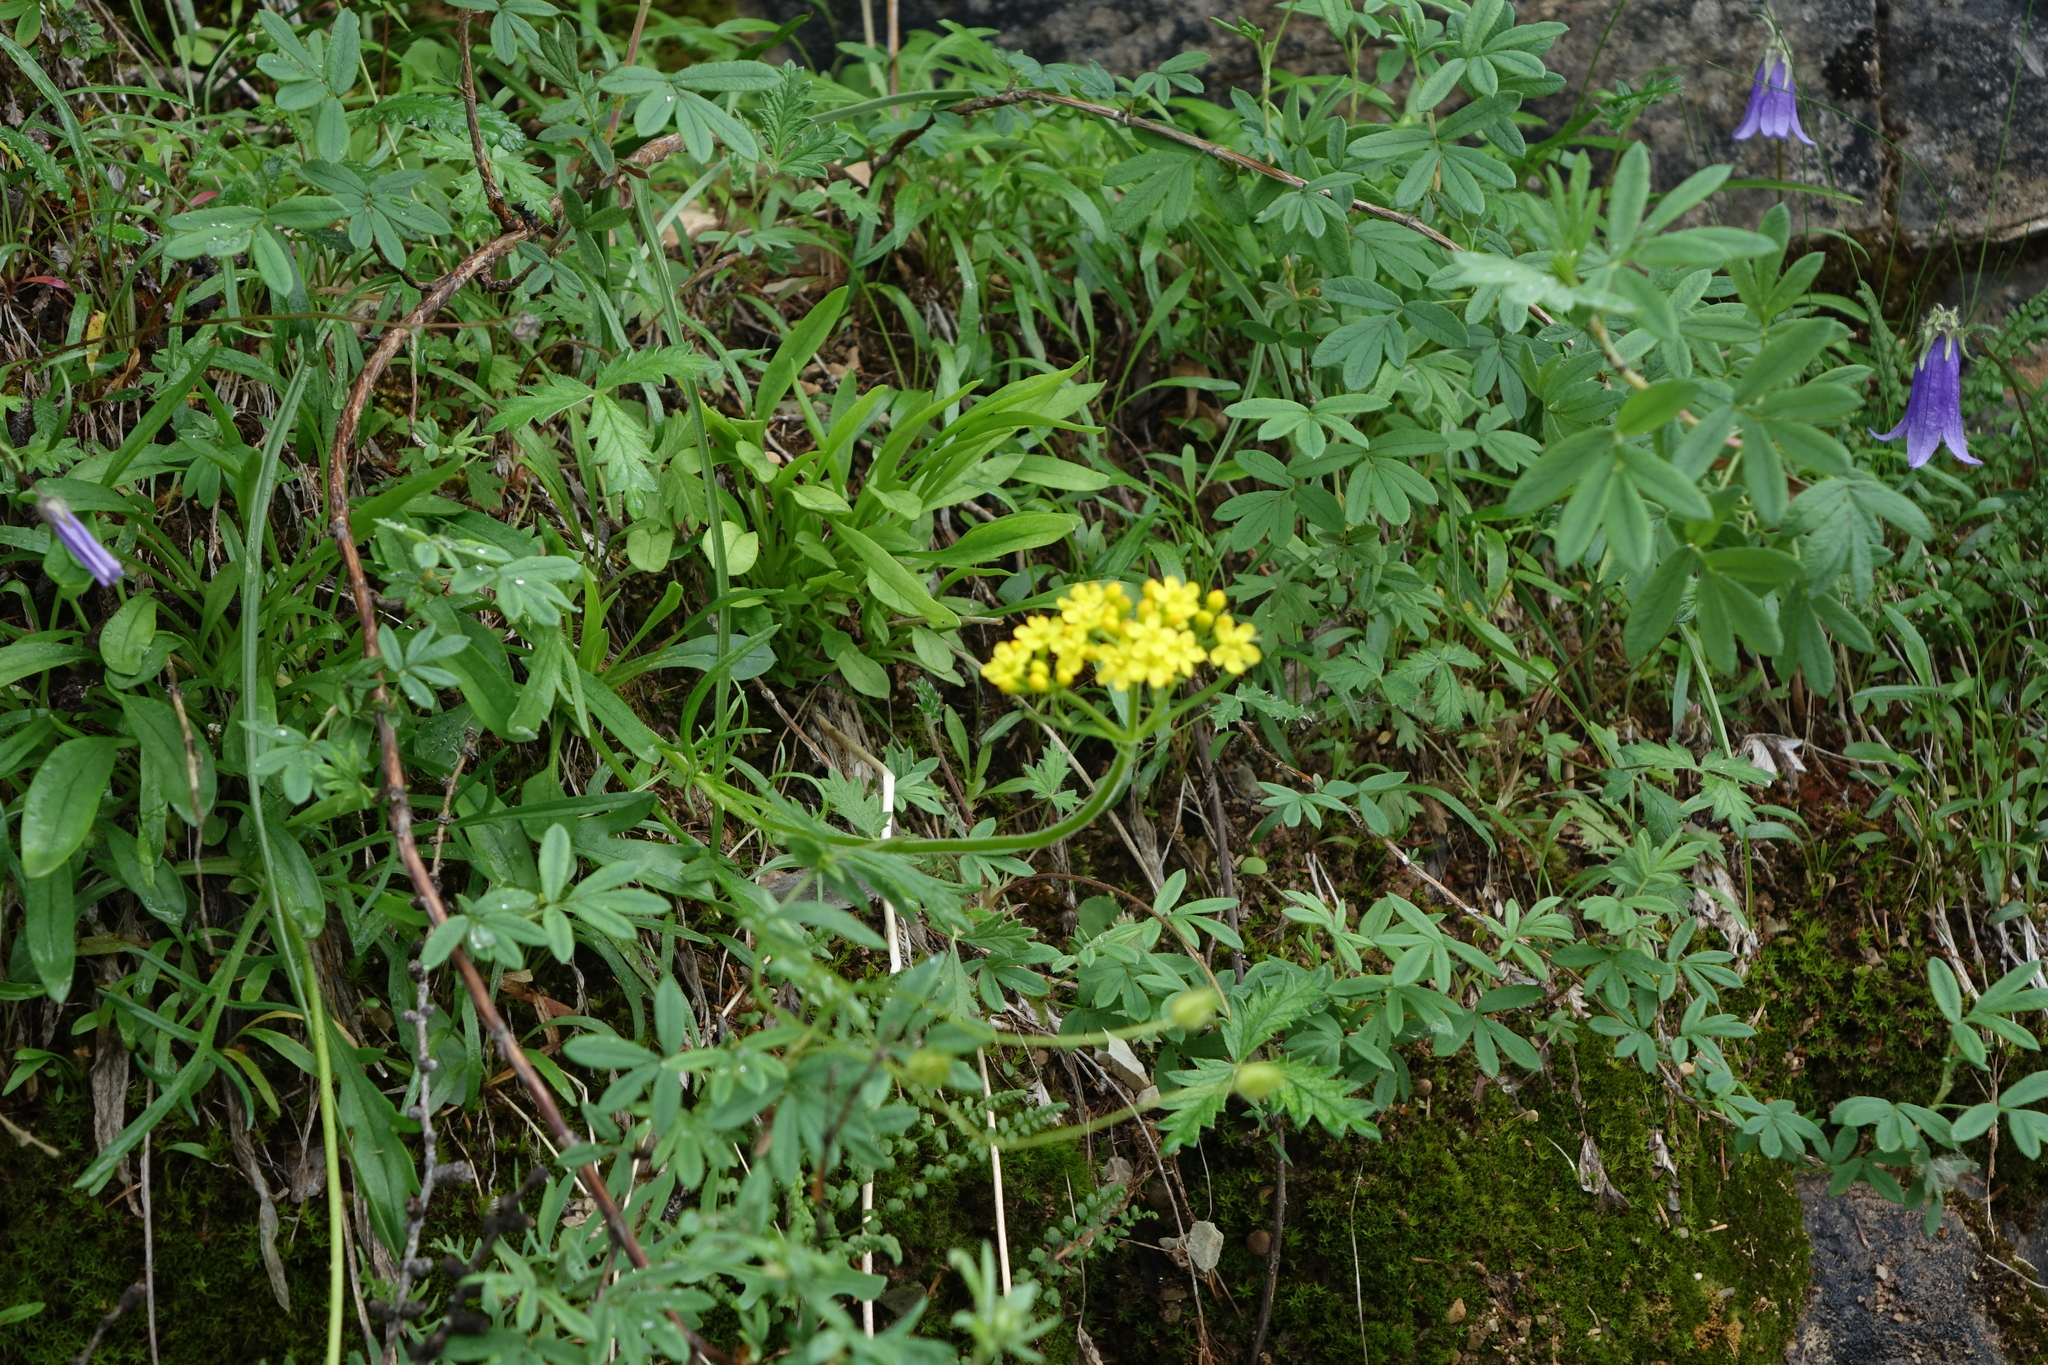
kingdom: Plantae
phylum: Tracheophyta
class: Magnoliopsida
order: Dipsacales
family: Caprifoliaceae
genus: Patrinia
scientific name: Patrinia sibirica
